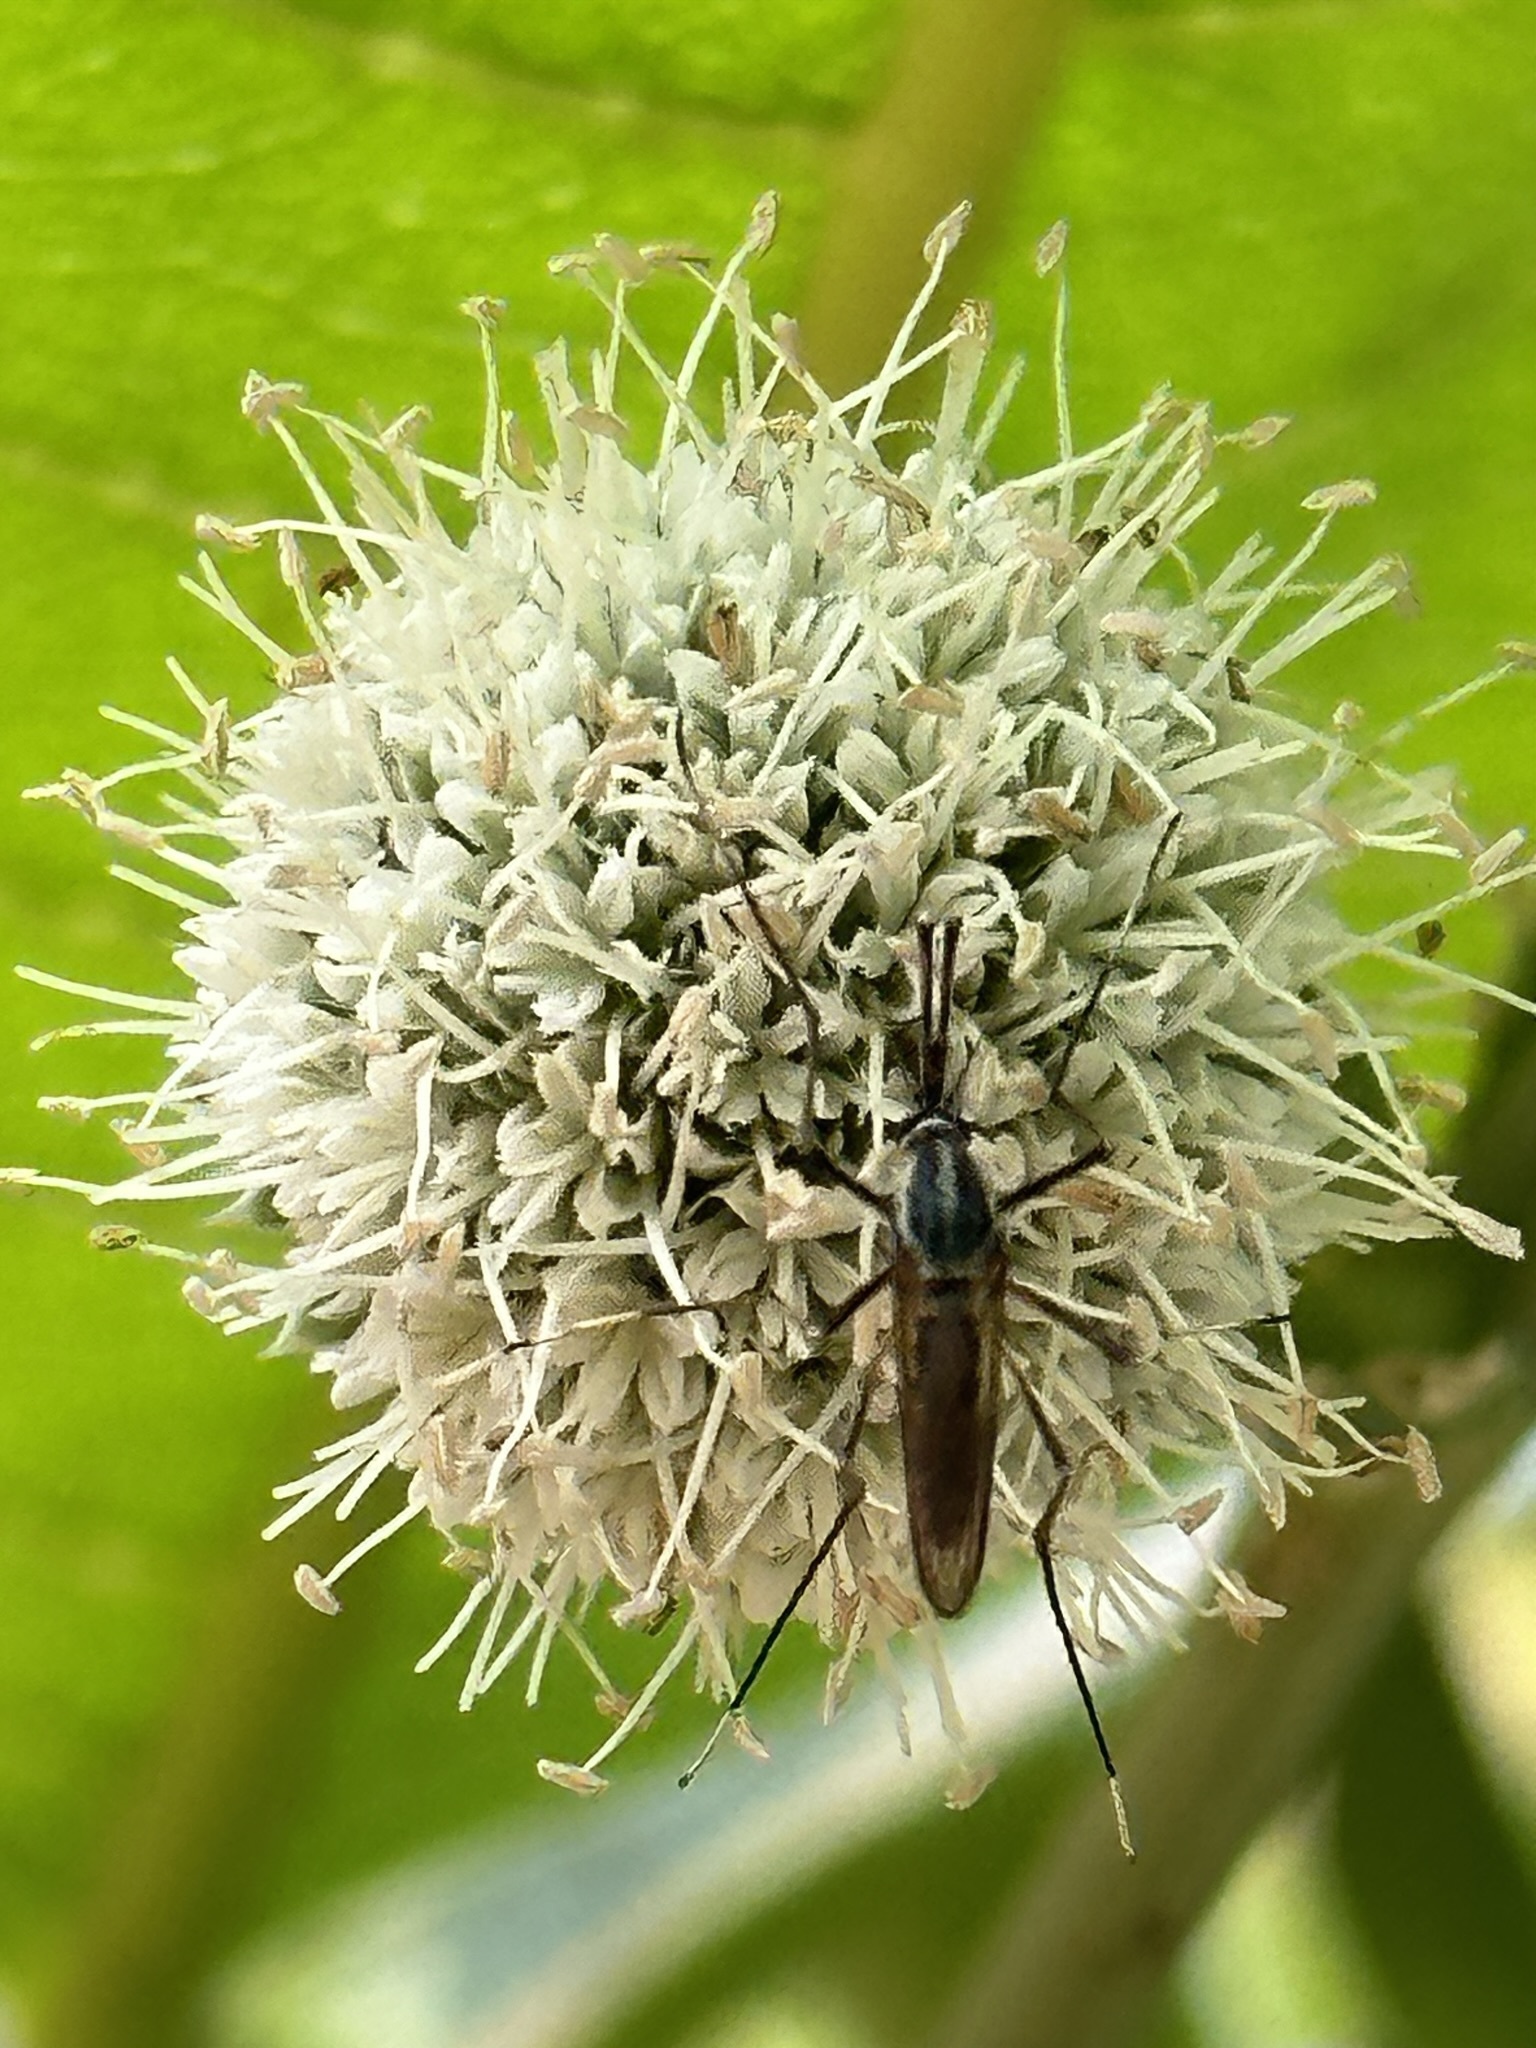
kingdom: Animalia
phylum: Arthropoda
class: Insecta
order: Diptera
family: Culicidae
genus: Toxorhynchites
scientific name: Toxorhynchites rutilus
